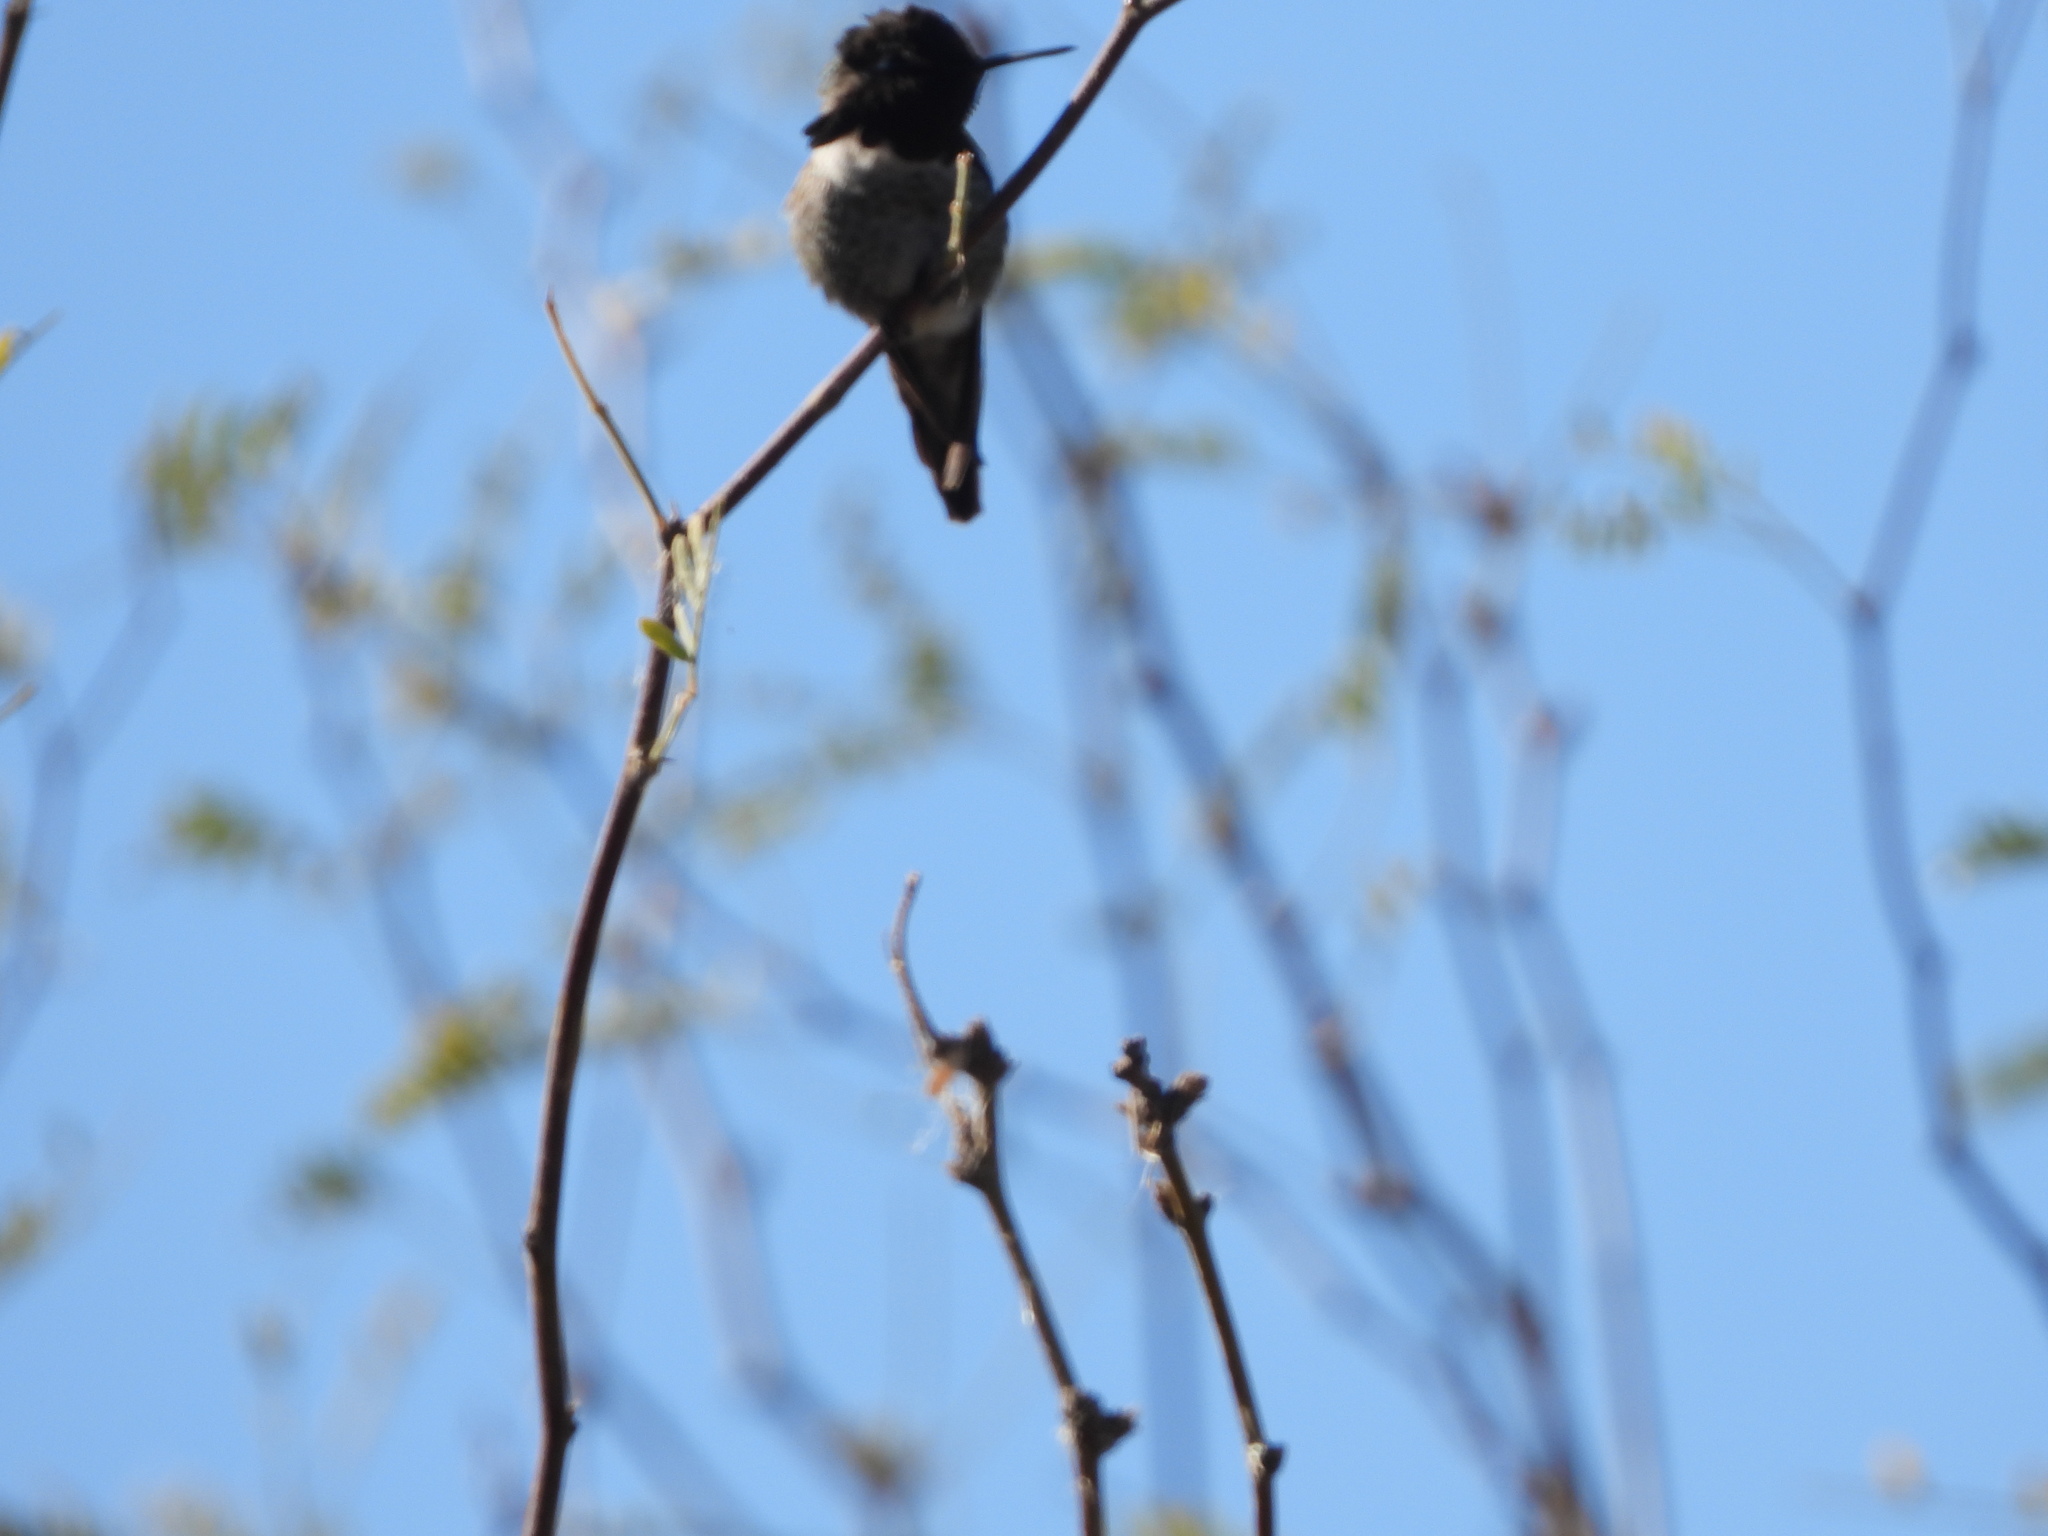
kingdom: Animalia
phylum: Chordata
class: Aves
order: Apodiformes
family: Trochilidae
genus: Calypte
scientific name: Calypte anna
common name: Anna's hummingbird
